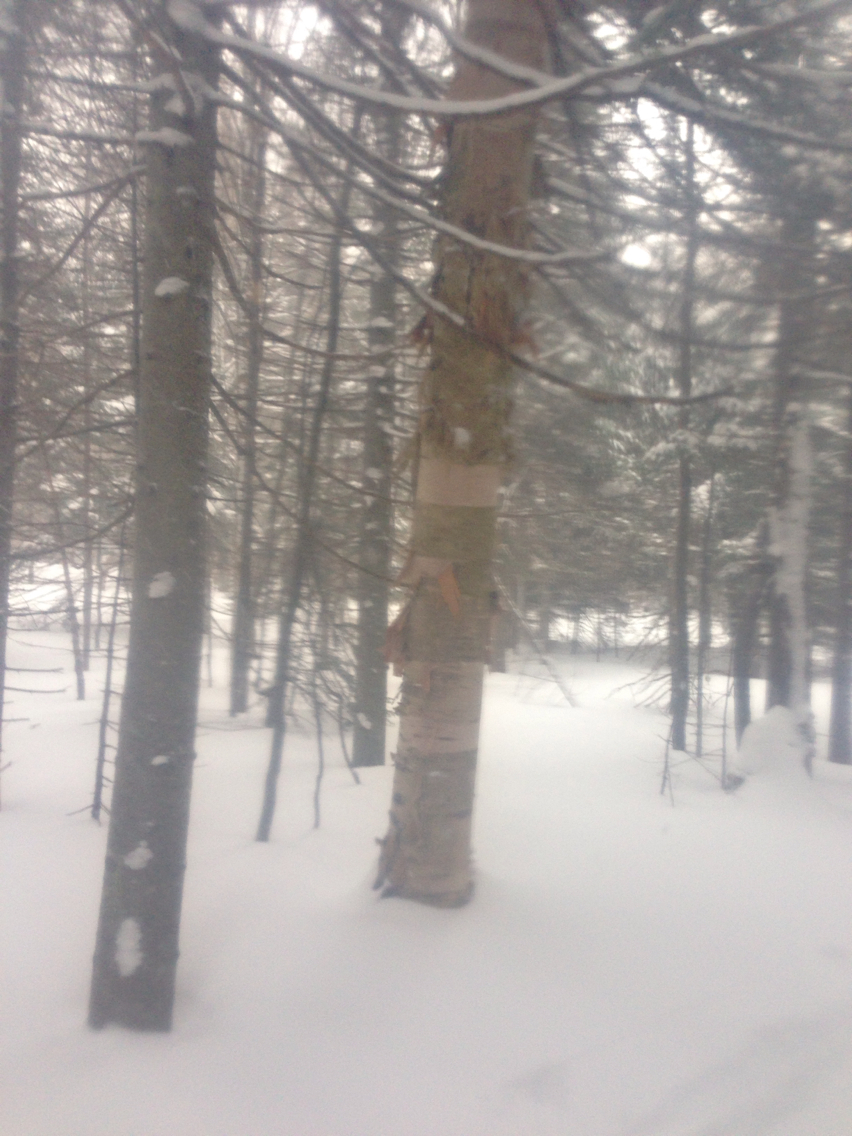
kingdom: Plantae
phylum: Tracheophyta
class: Magnoliopsida
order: Fagales
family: Betulaceae
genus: Betula
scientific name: Betula cordifolia
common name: Mountain white birch
